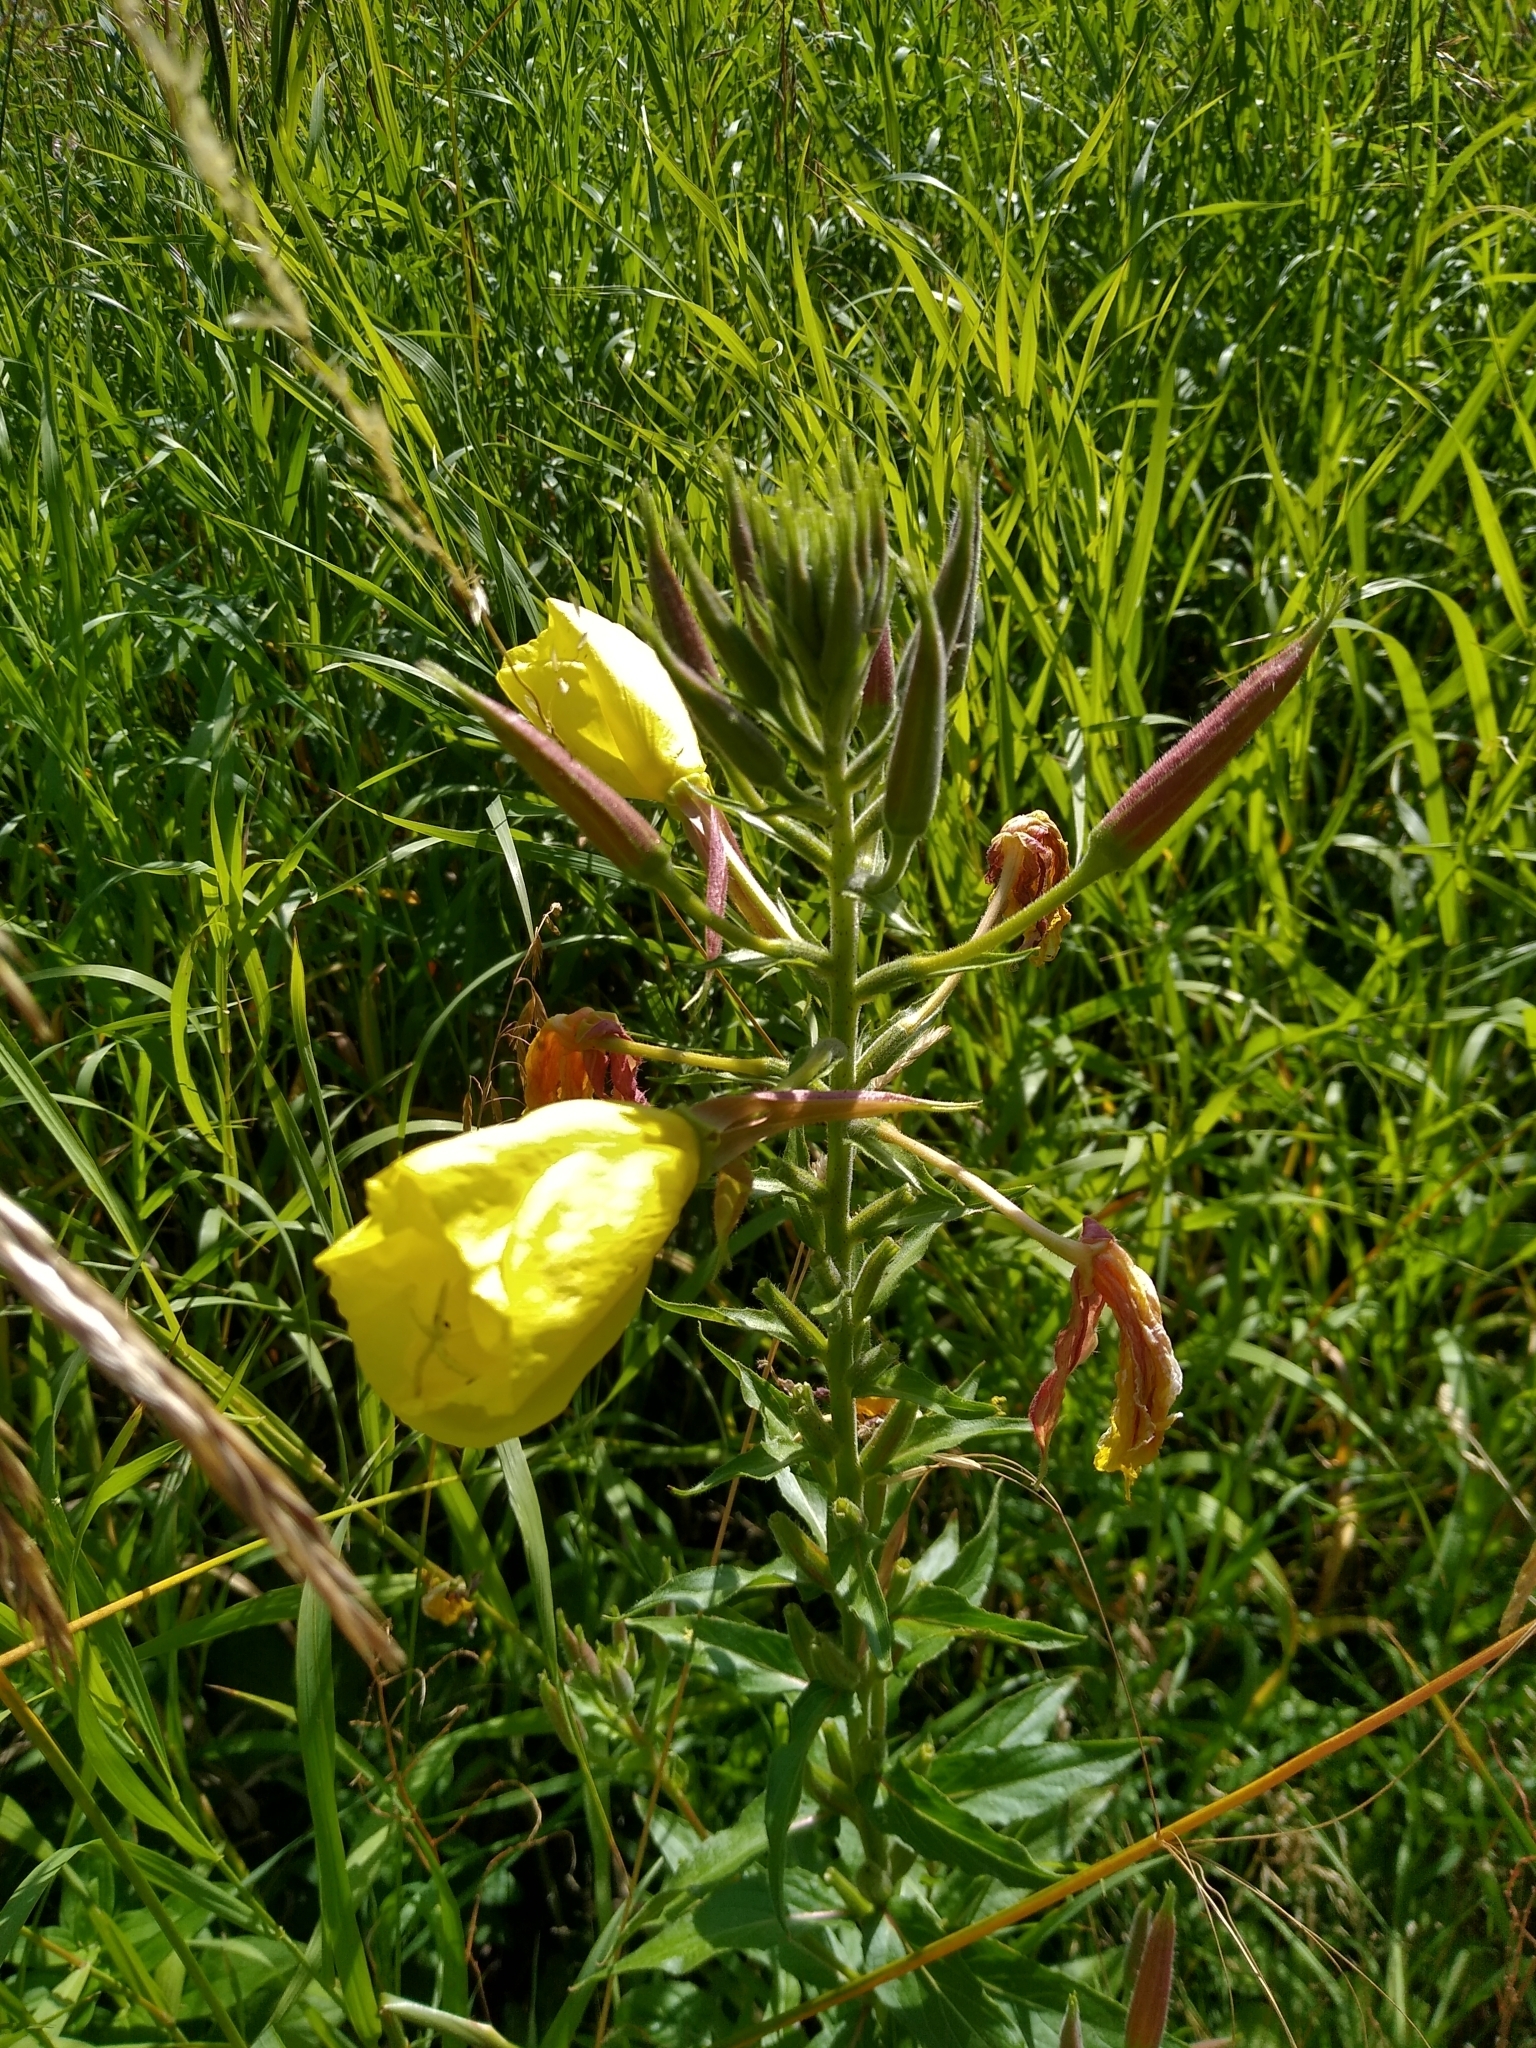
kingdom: Plantae
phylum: Tracheophyta
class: Magnoliopsida
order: Myrtales
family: Onagraceae
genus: Oenothera
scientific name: Oenothera glazioviana
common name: Large-flowered evening-primrose
